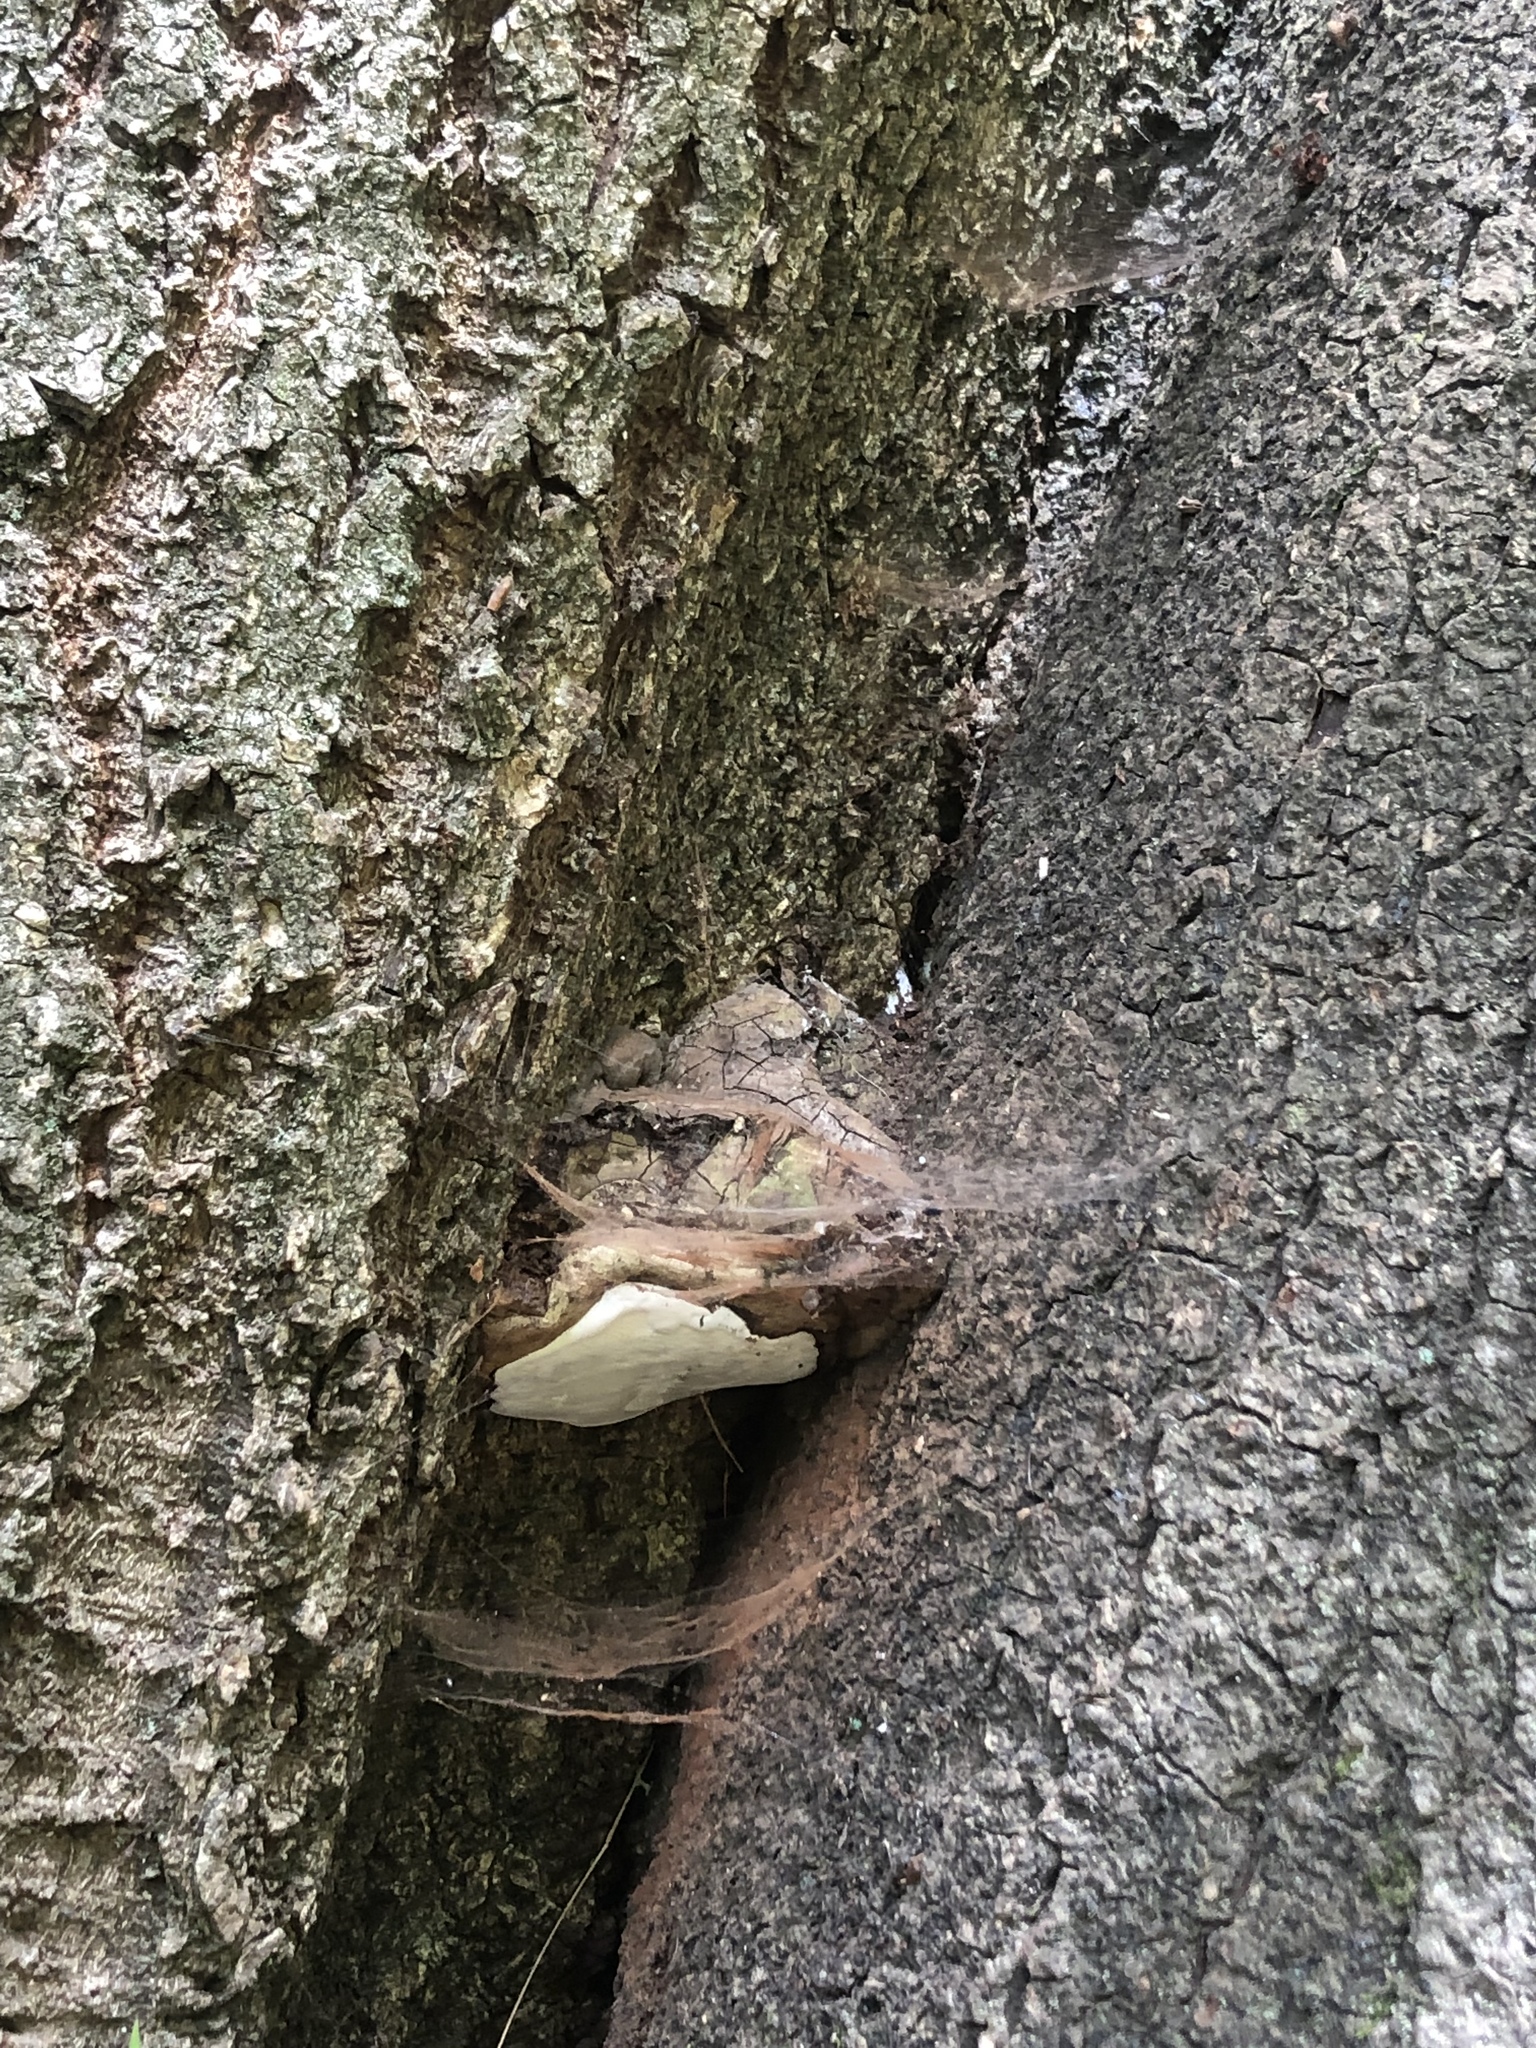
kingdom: Fungi
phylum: Basidiomycota
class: Agaricomycetes
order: Polyporales
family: Polyporaceae
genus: Ganoderma
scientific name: Ganoderma brownii
